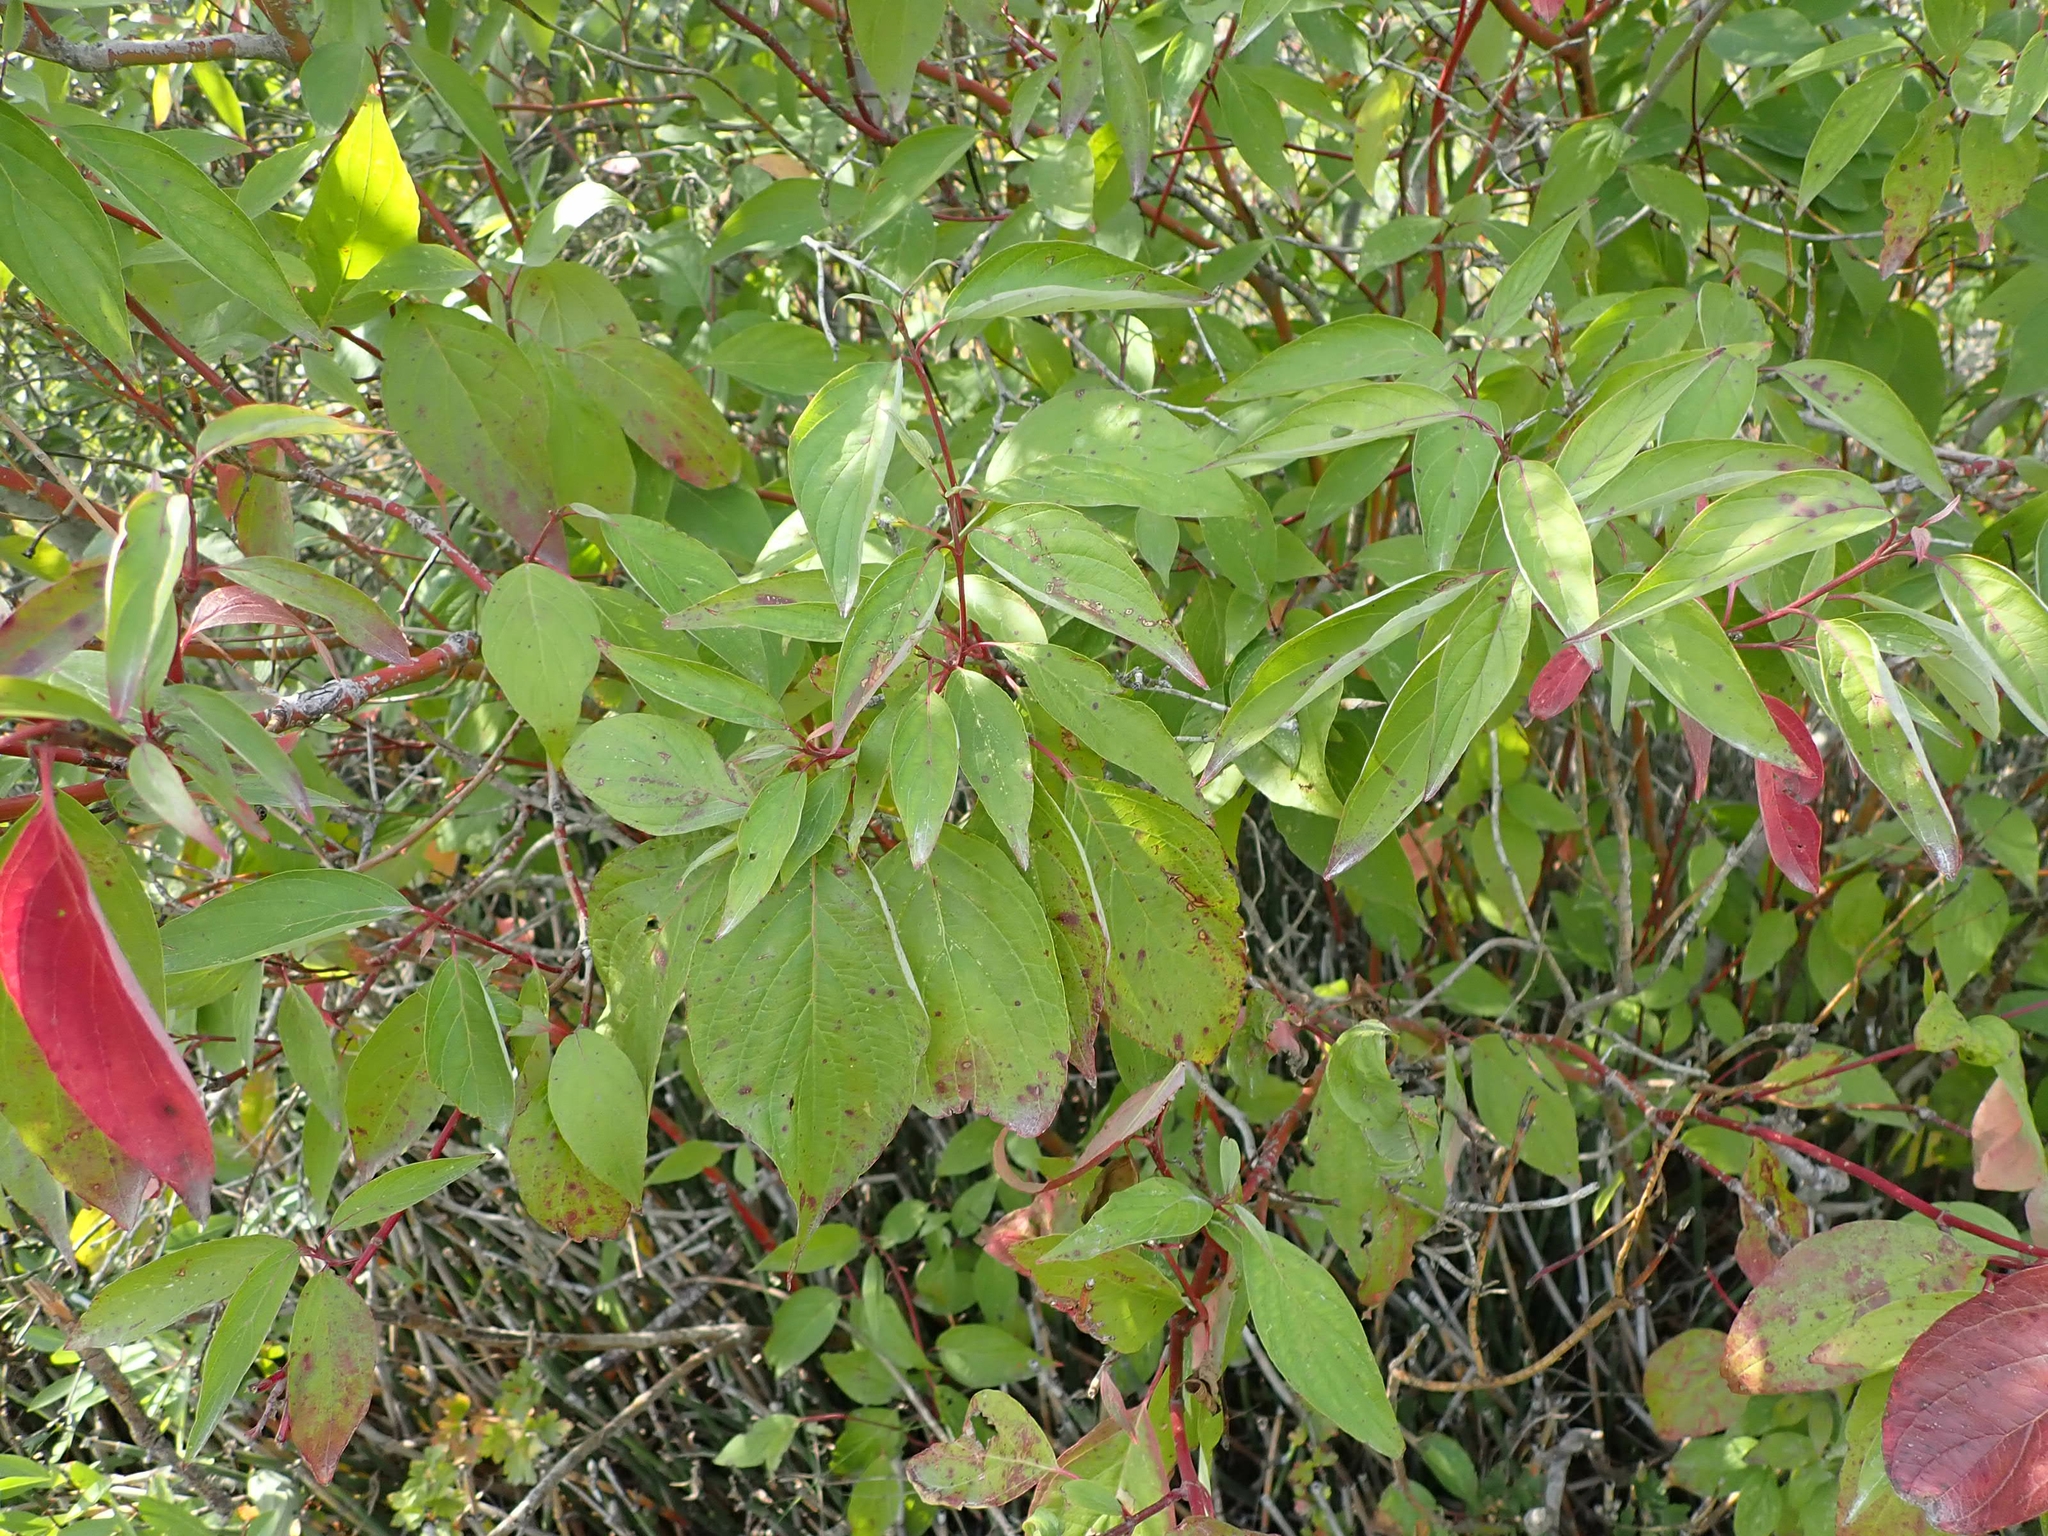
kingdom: Plantae
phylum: Tracheophyta
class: Magnoliopsida
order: Cornales
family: Cornaceae
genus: Cornus
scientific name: Cornus sericea
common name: Red-osier dogwood
